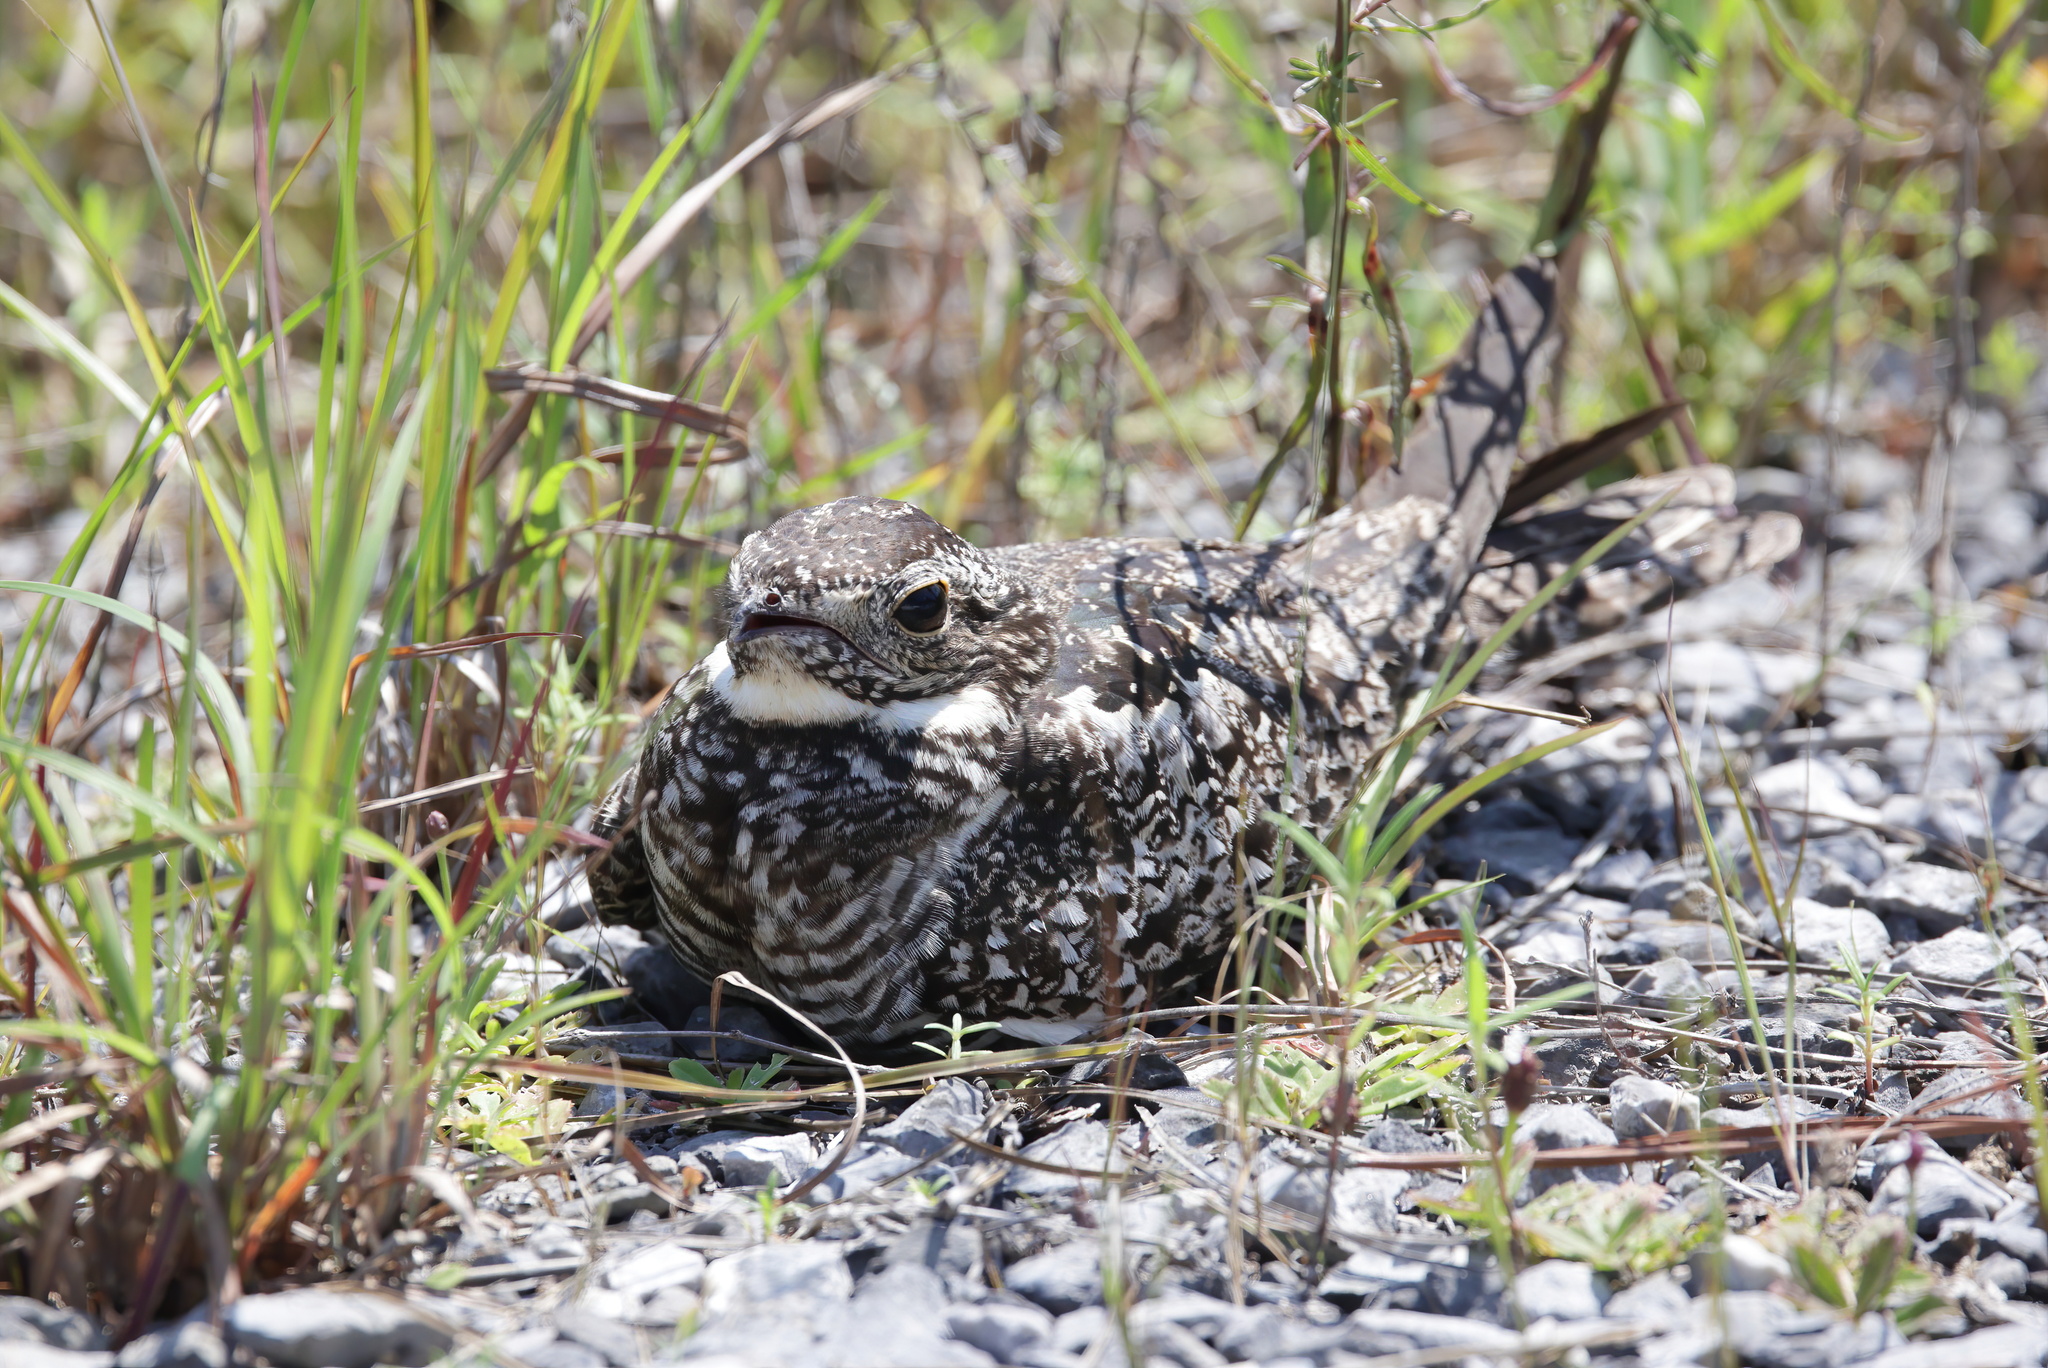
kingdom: Animalia
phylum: Chordata
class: Aves
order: Caprimulgiformes
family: Caprimulgidae
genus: Chordeiles
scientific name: Chordeiles minor
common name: Common nighthawk
